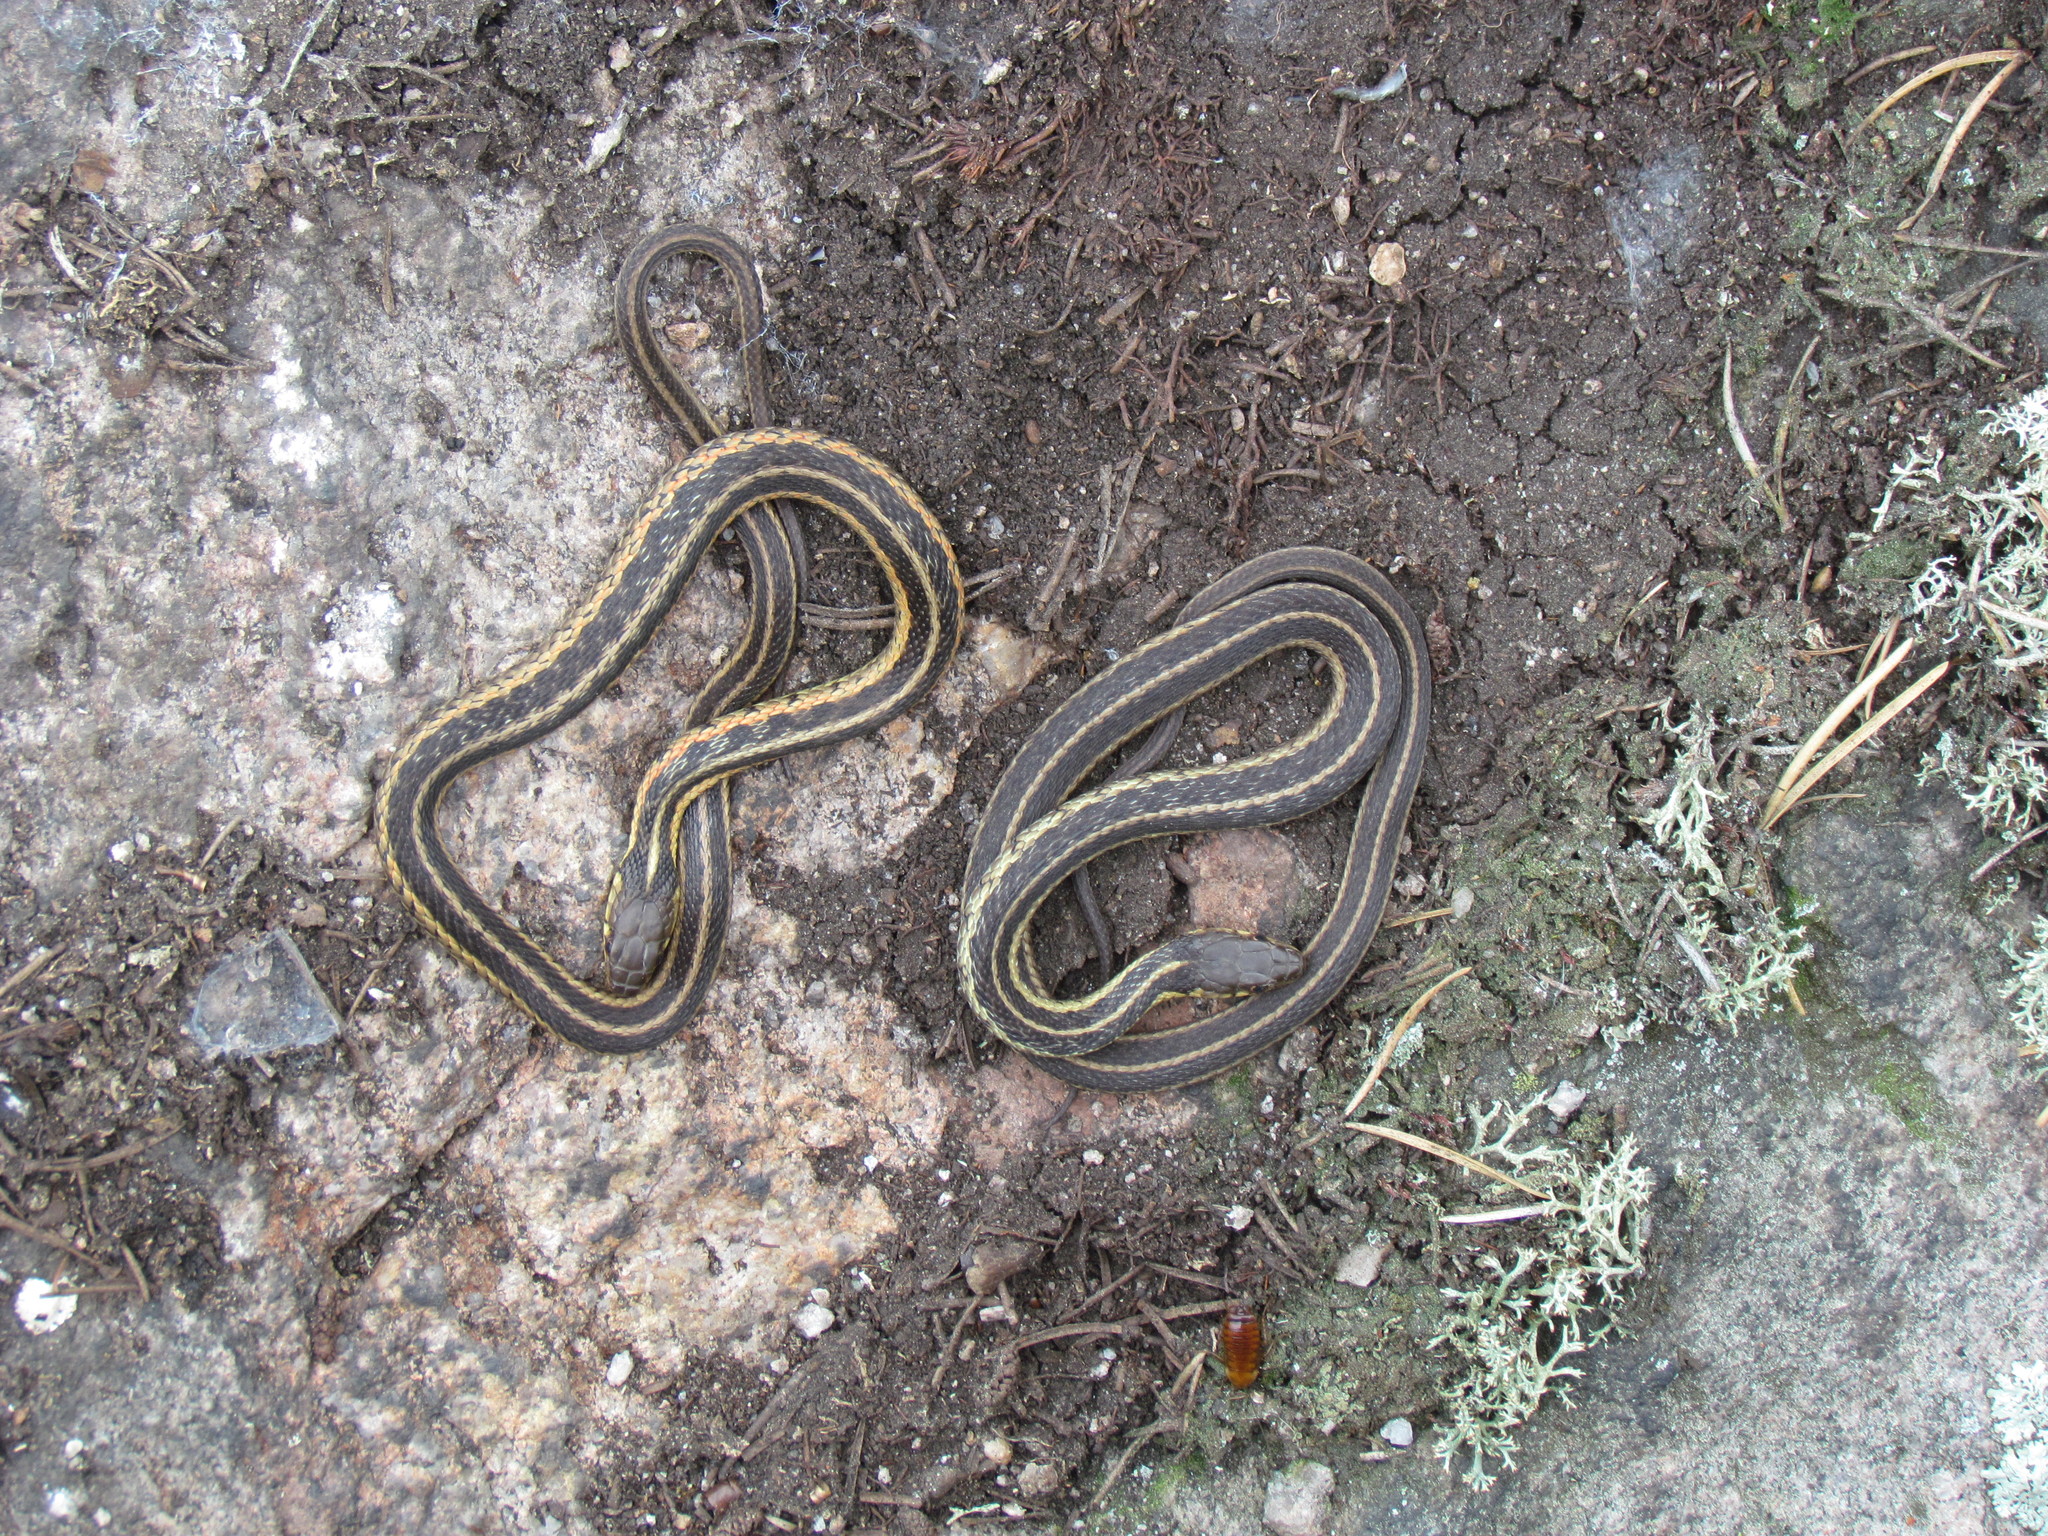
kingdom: Animalia
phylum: Chordata
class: Squamata
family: Colubridae
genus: Thamnophis
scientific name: Thamnophis sirtalis
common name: Common garter snake
